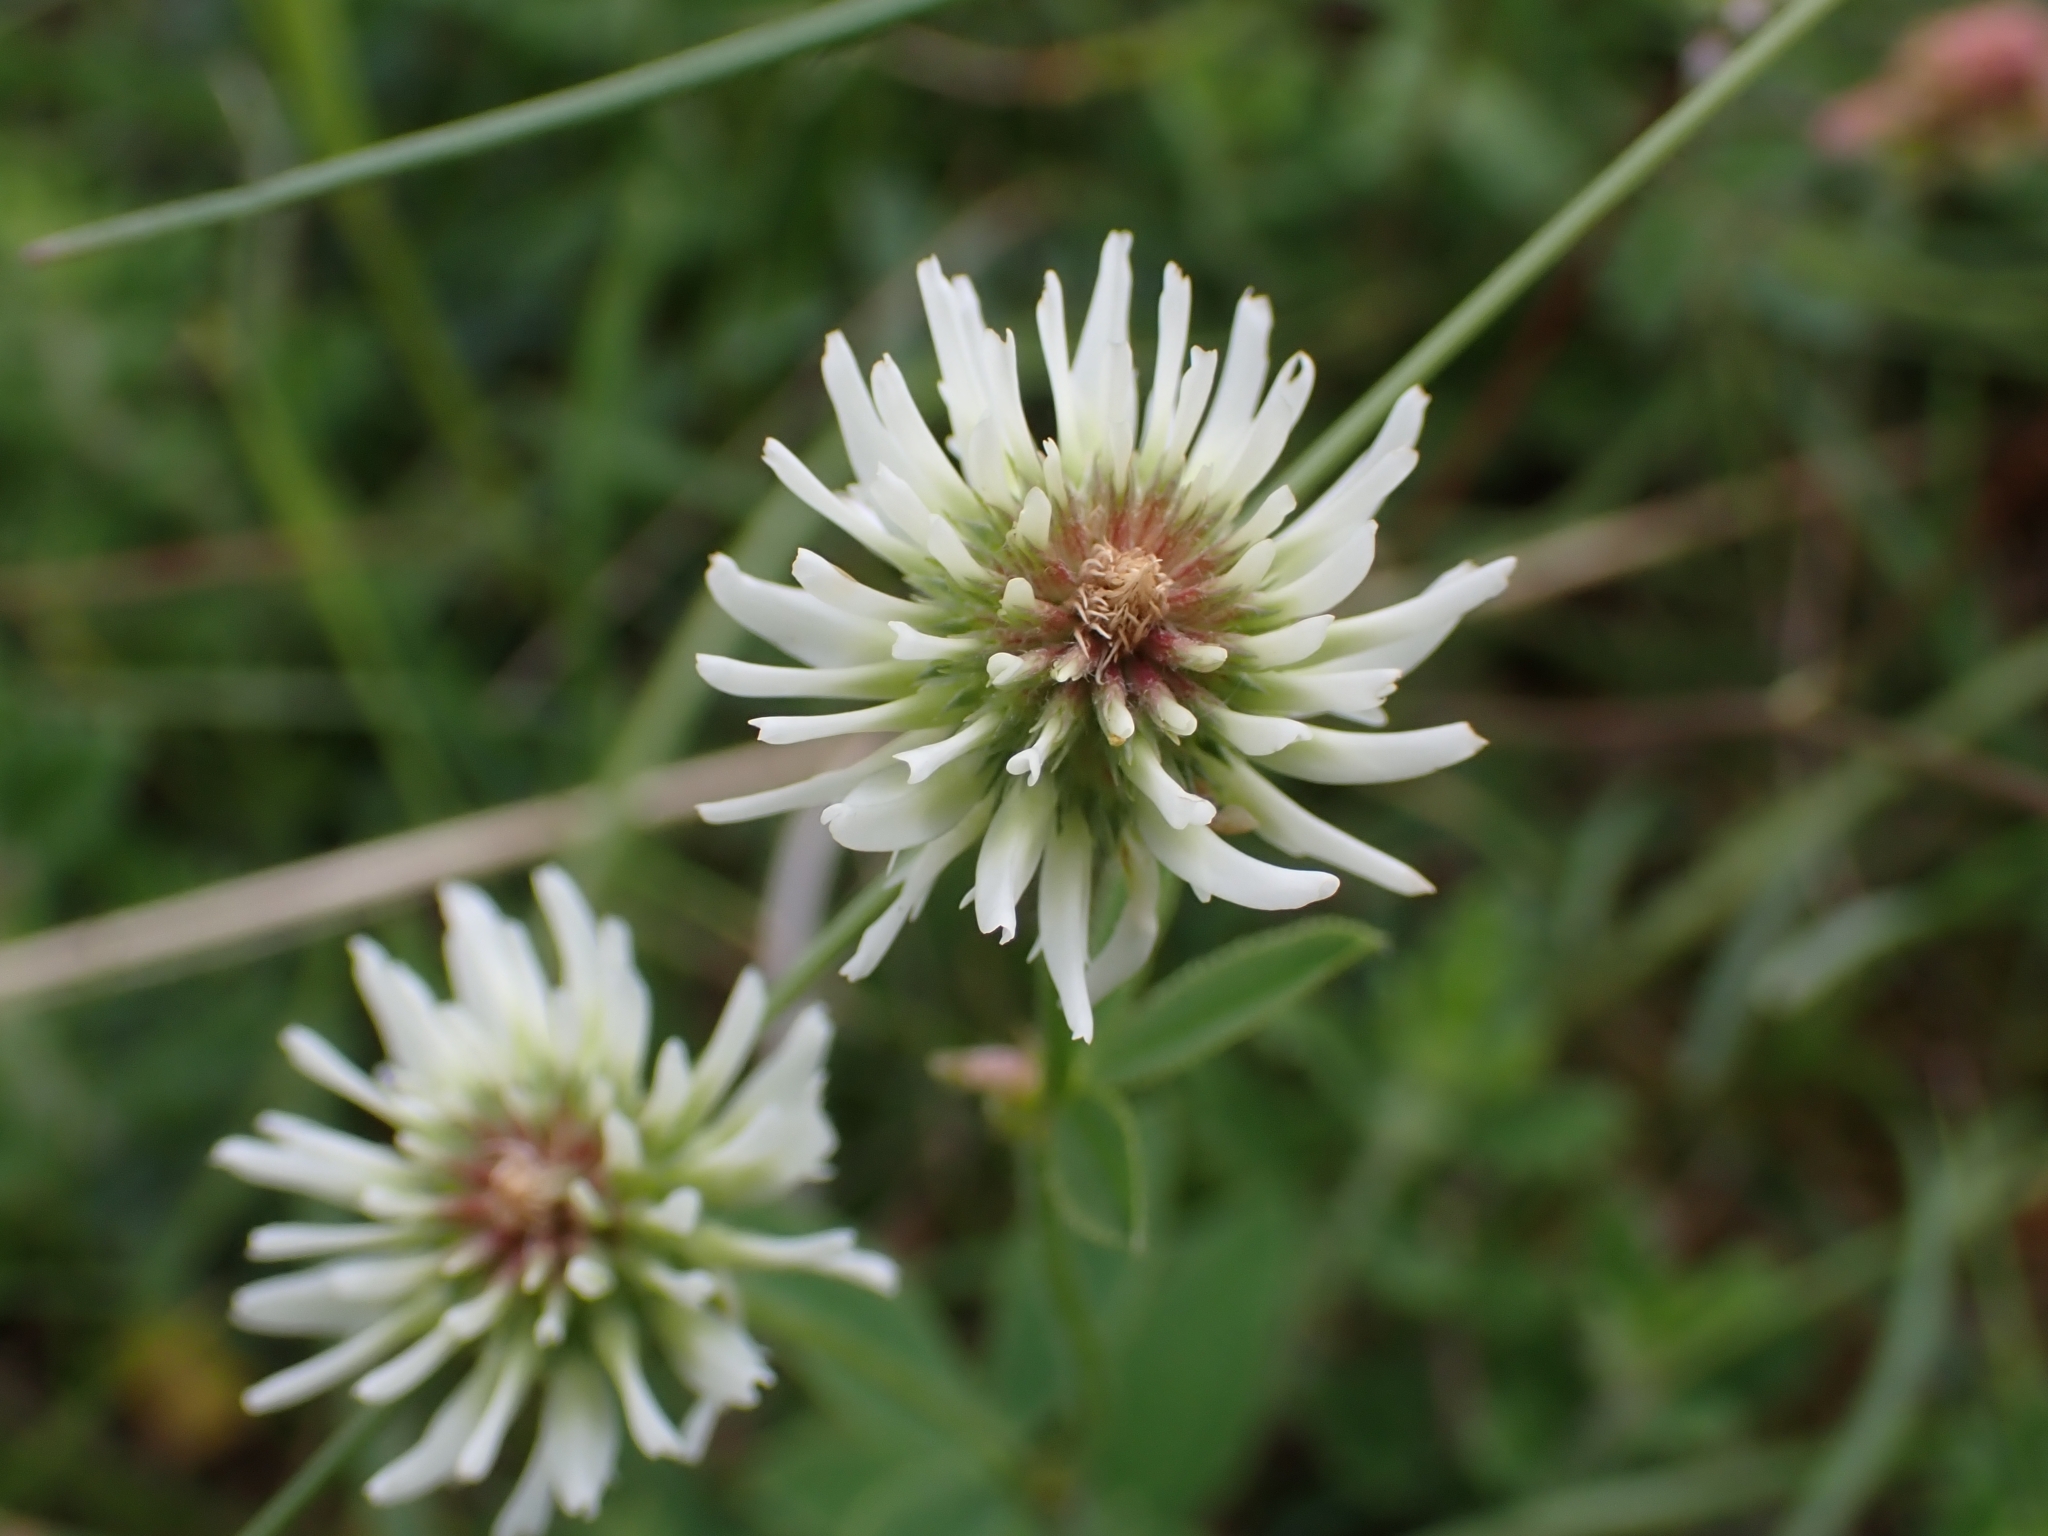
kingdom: Plantae
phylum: Tracheophyta
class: Magnoliopsida
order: Fabales
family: Fabaceae
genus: Trifolium
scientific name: Trifolium montanum
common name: Mountain clover
